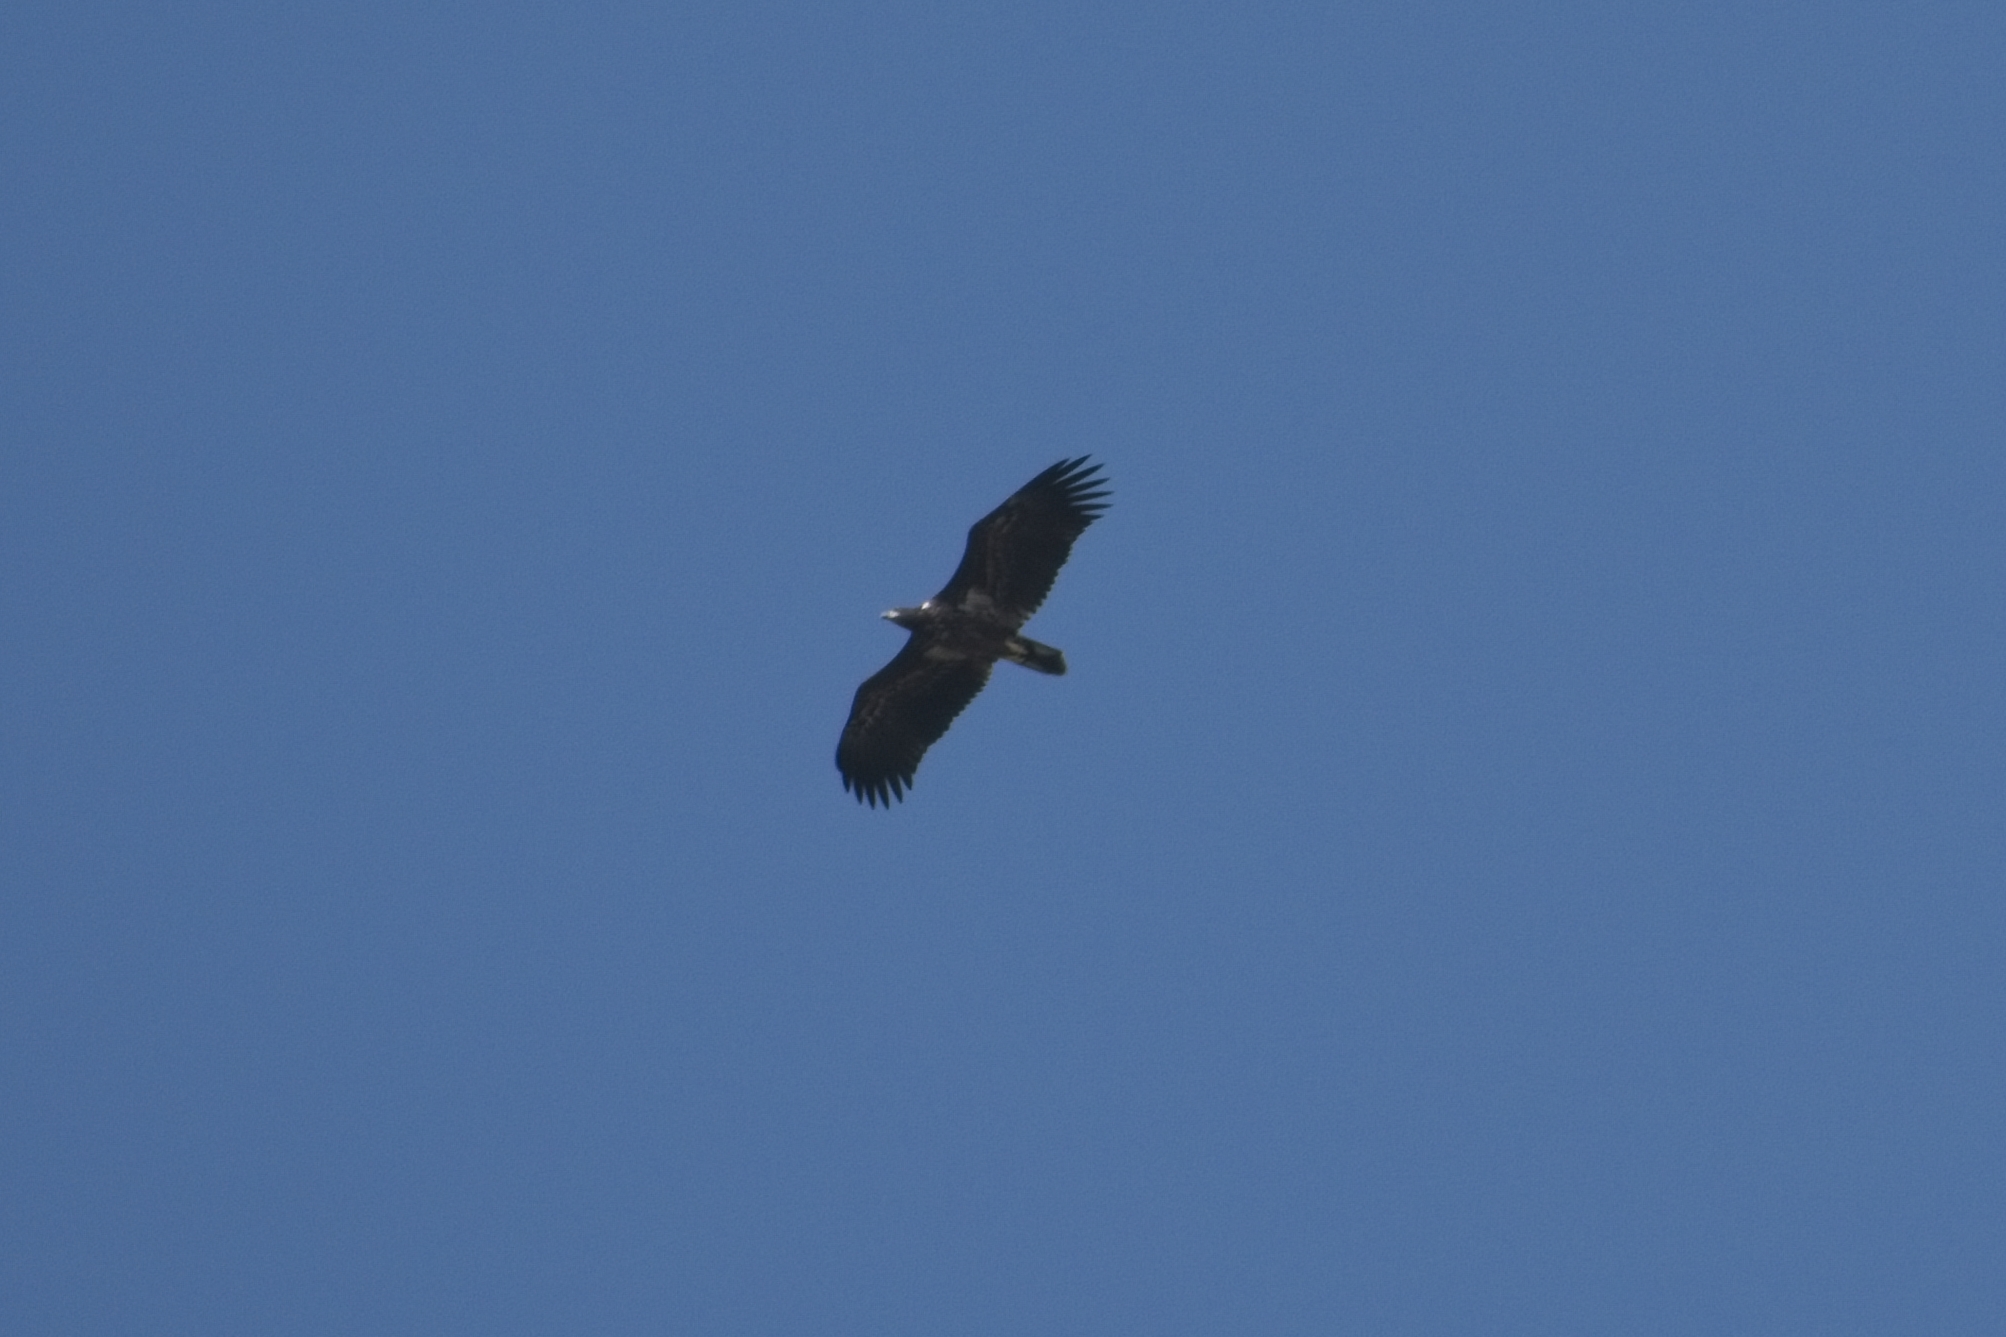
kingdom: Animalia
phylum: Chordata
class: Aves
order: Accipitriformes
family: Accipitridae
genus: Haliaeetus
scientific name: Haliaeetus albicilla
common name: White-tailed eagle
